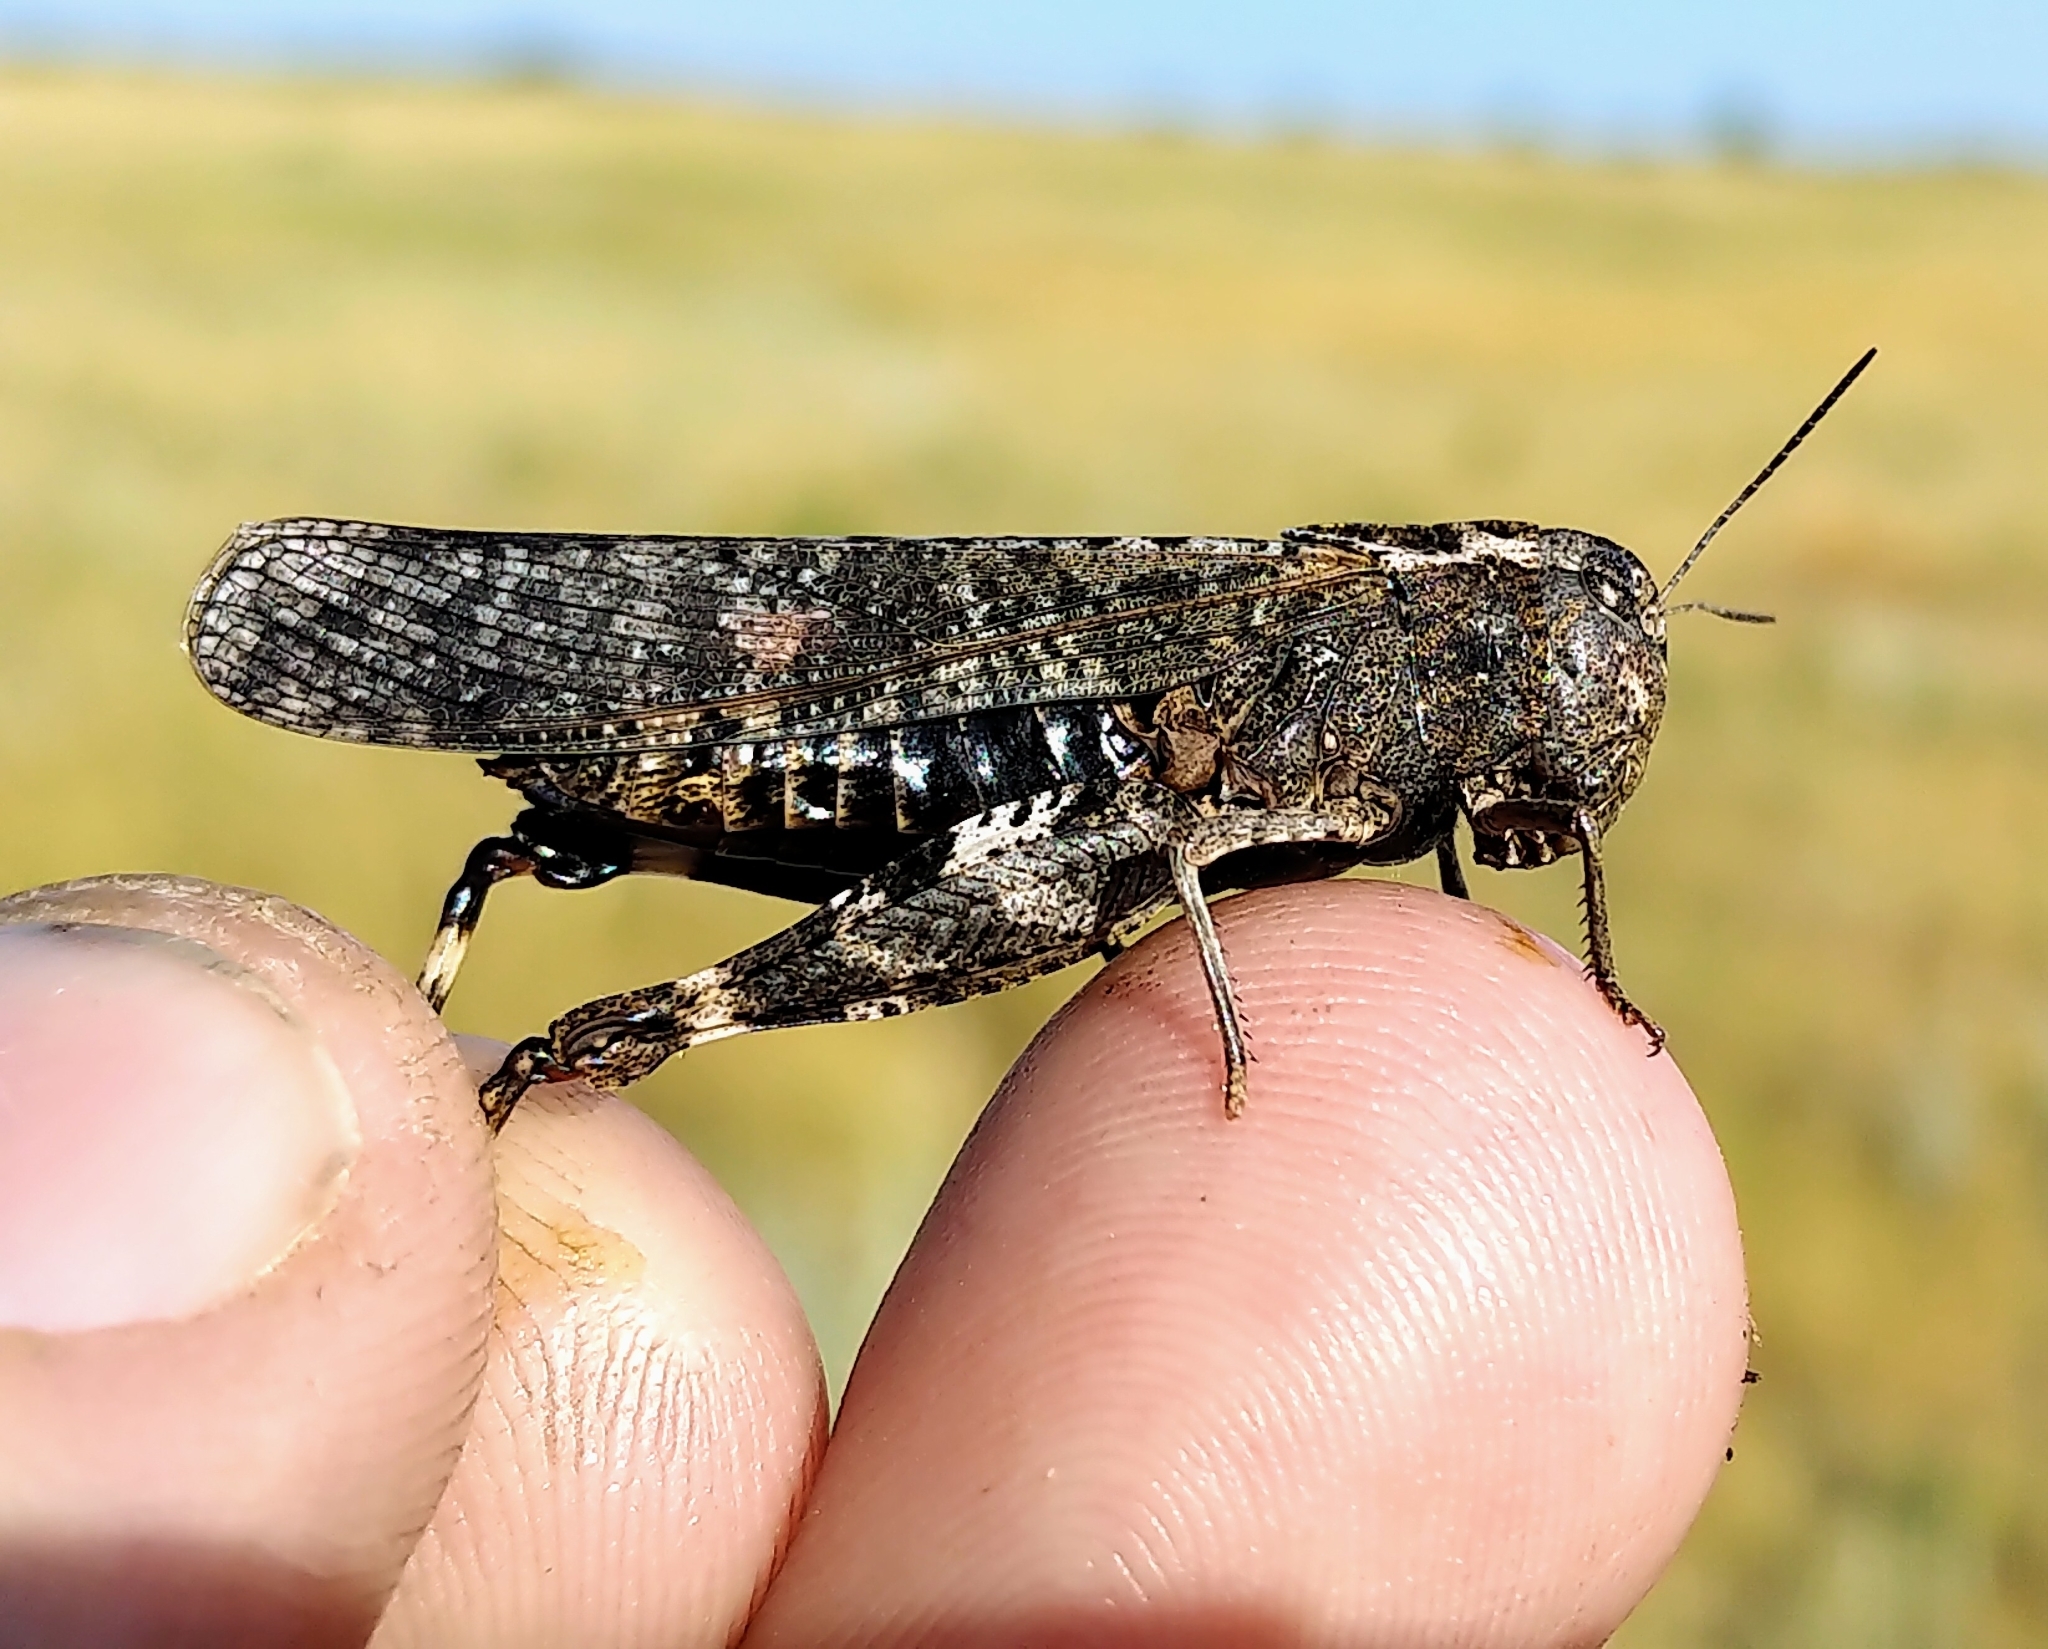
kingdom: Animalia
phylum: Arthropoda
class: Insecta
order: Orthoptera
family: Acrididae
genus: Arphia
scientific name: Arphia pseudo-nietana
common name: Red-winged grasshopper
